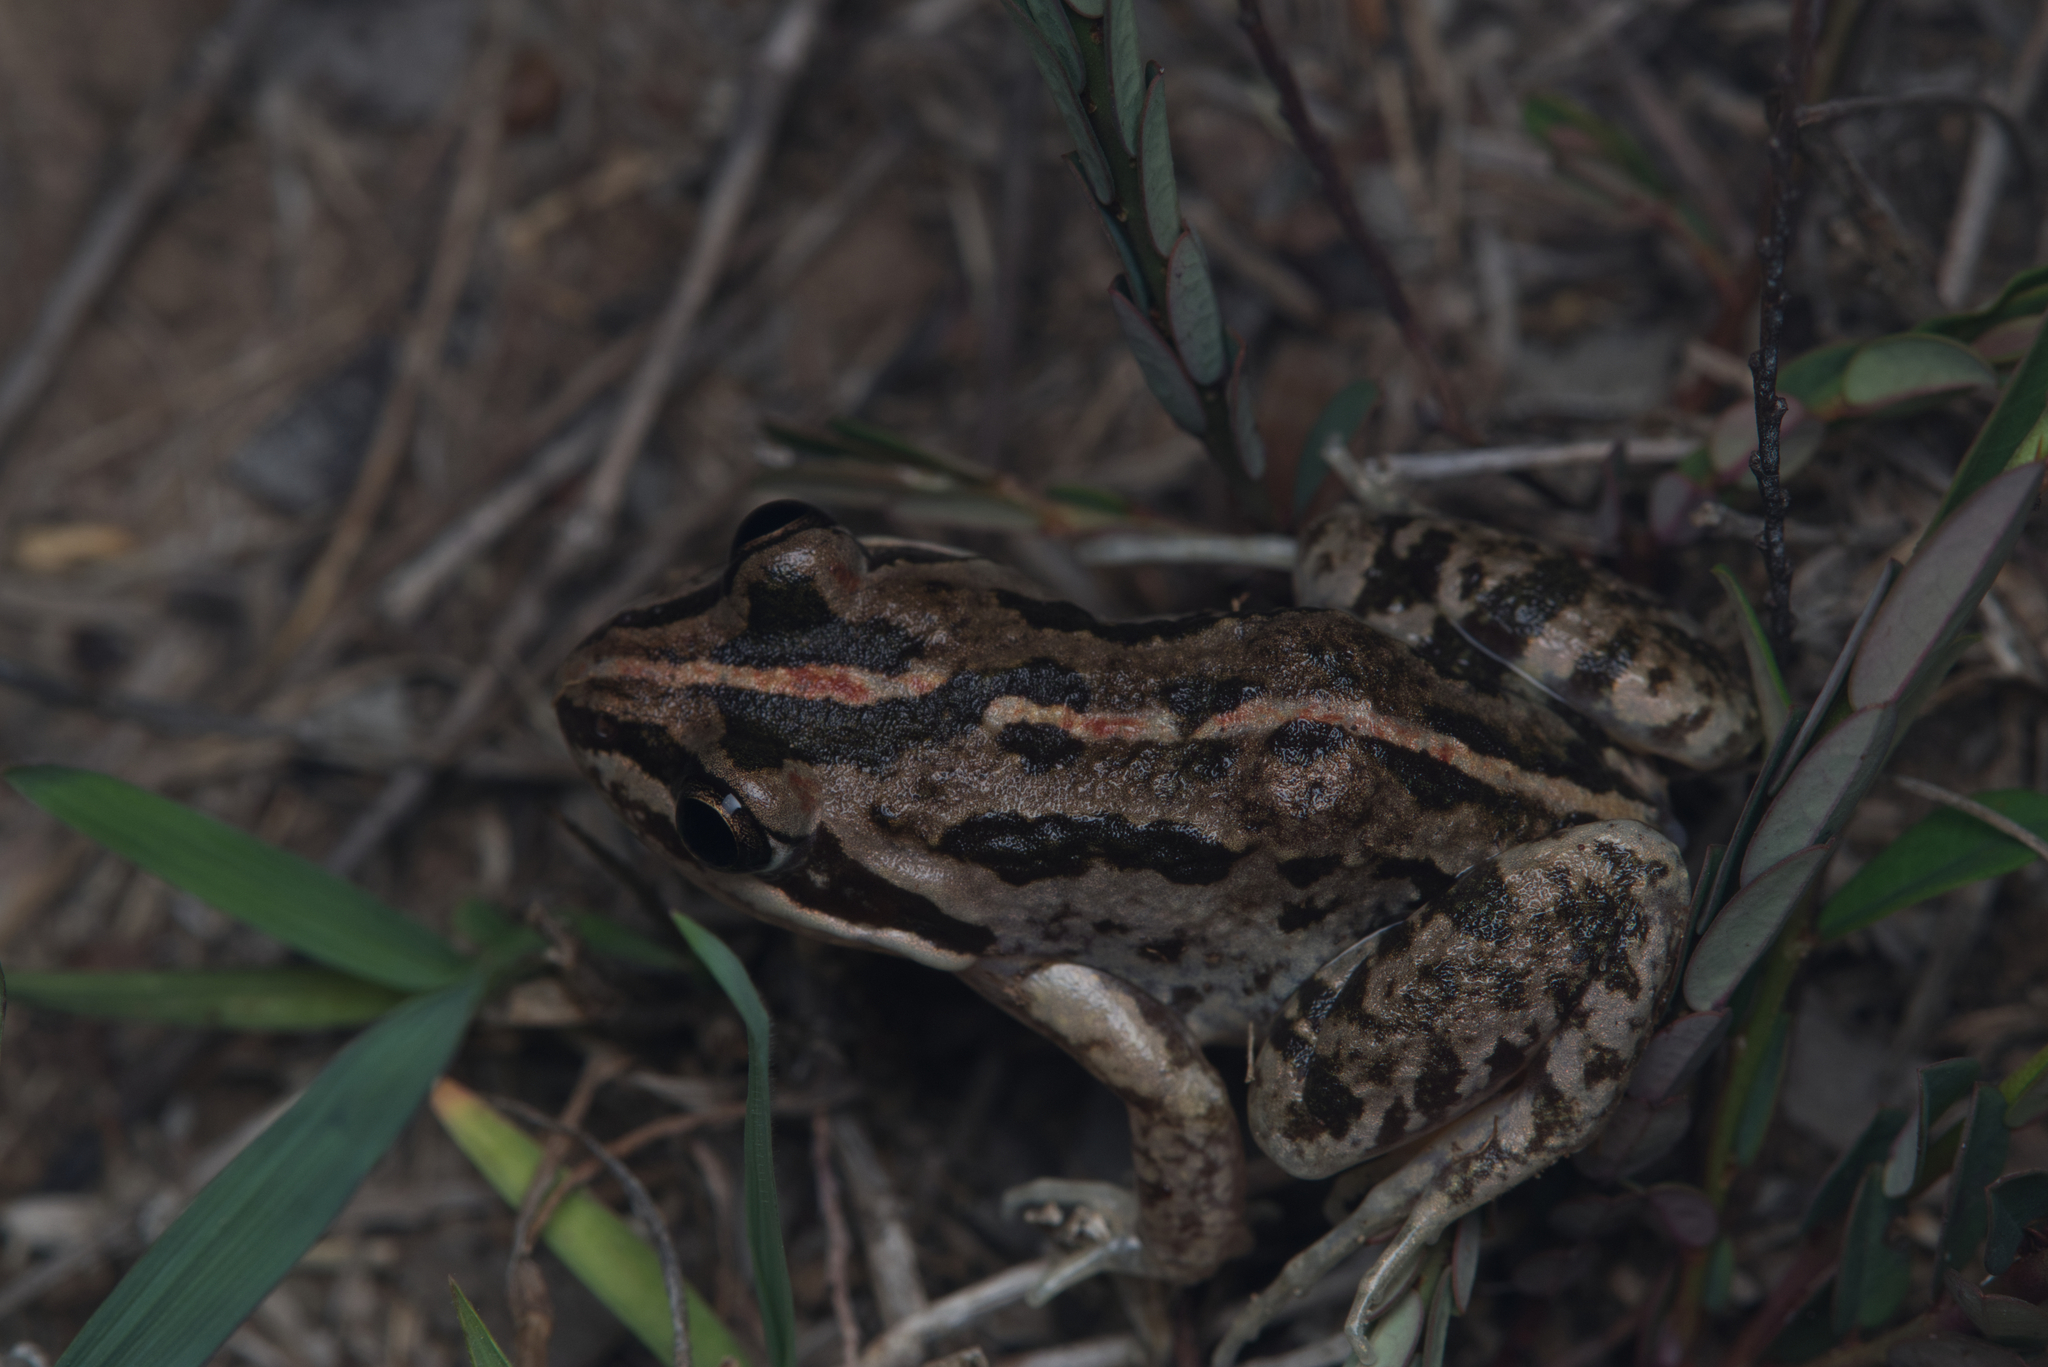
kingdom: Animalia
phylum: Chordata
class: Amphibia
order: Anura
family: Limnodynastidae
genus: Limnodynastes
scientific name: Limnodynastes peronii
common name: Brown frog
